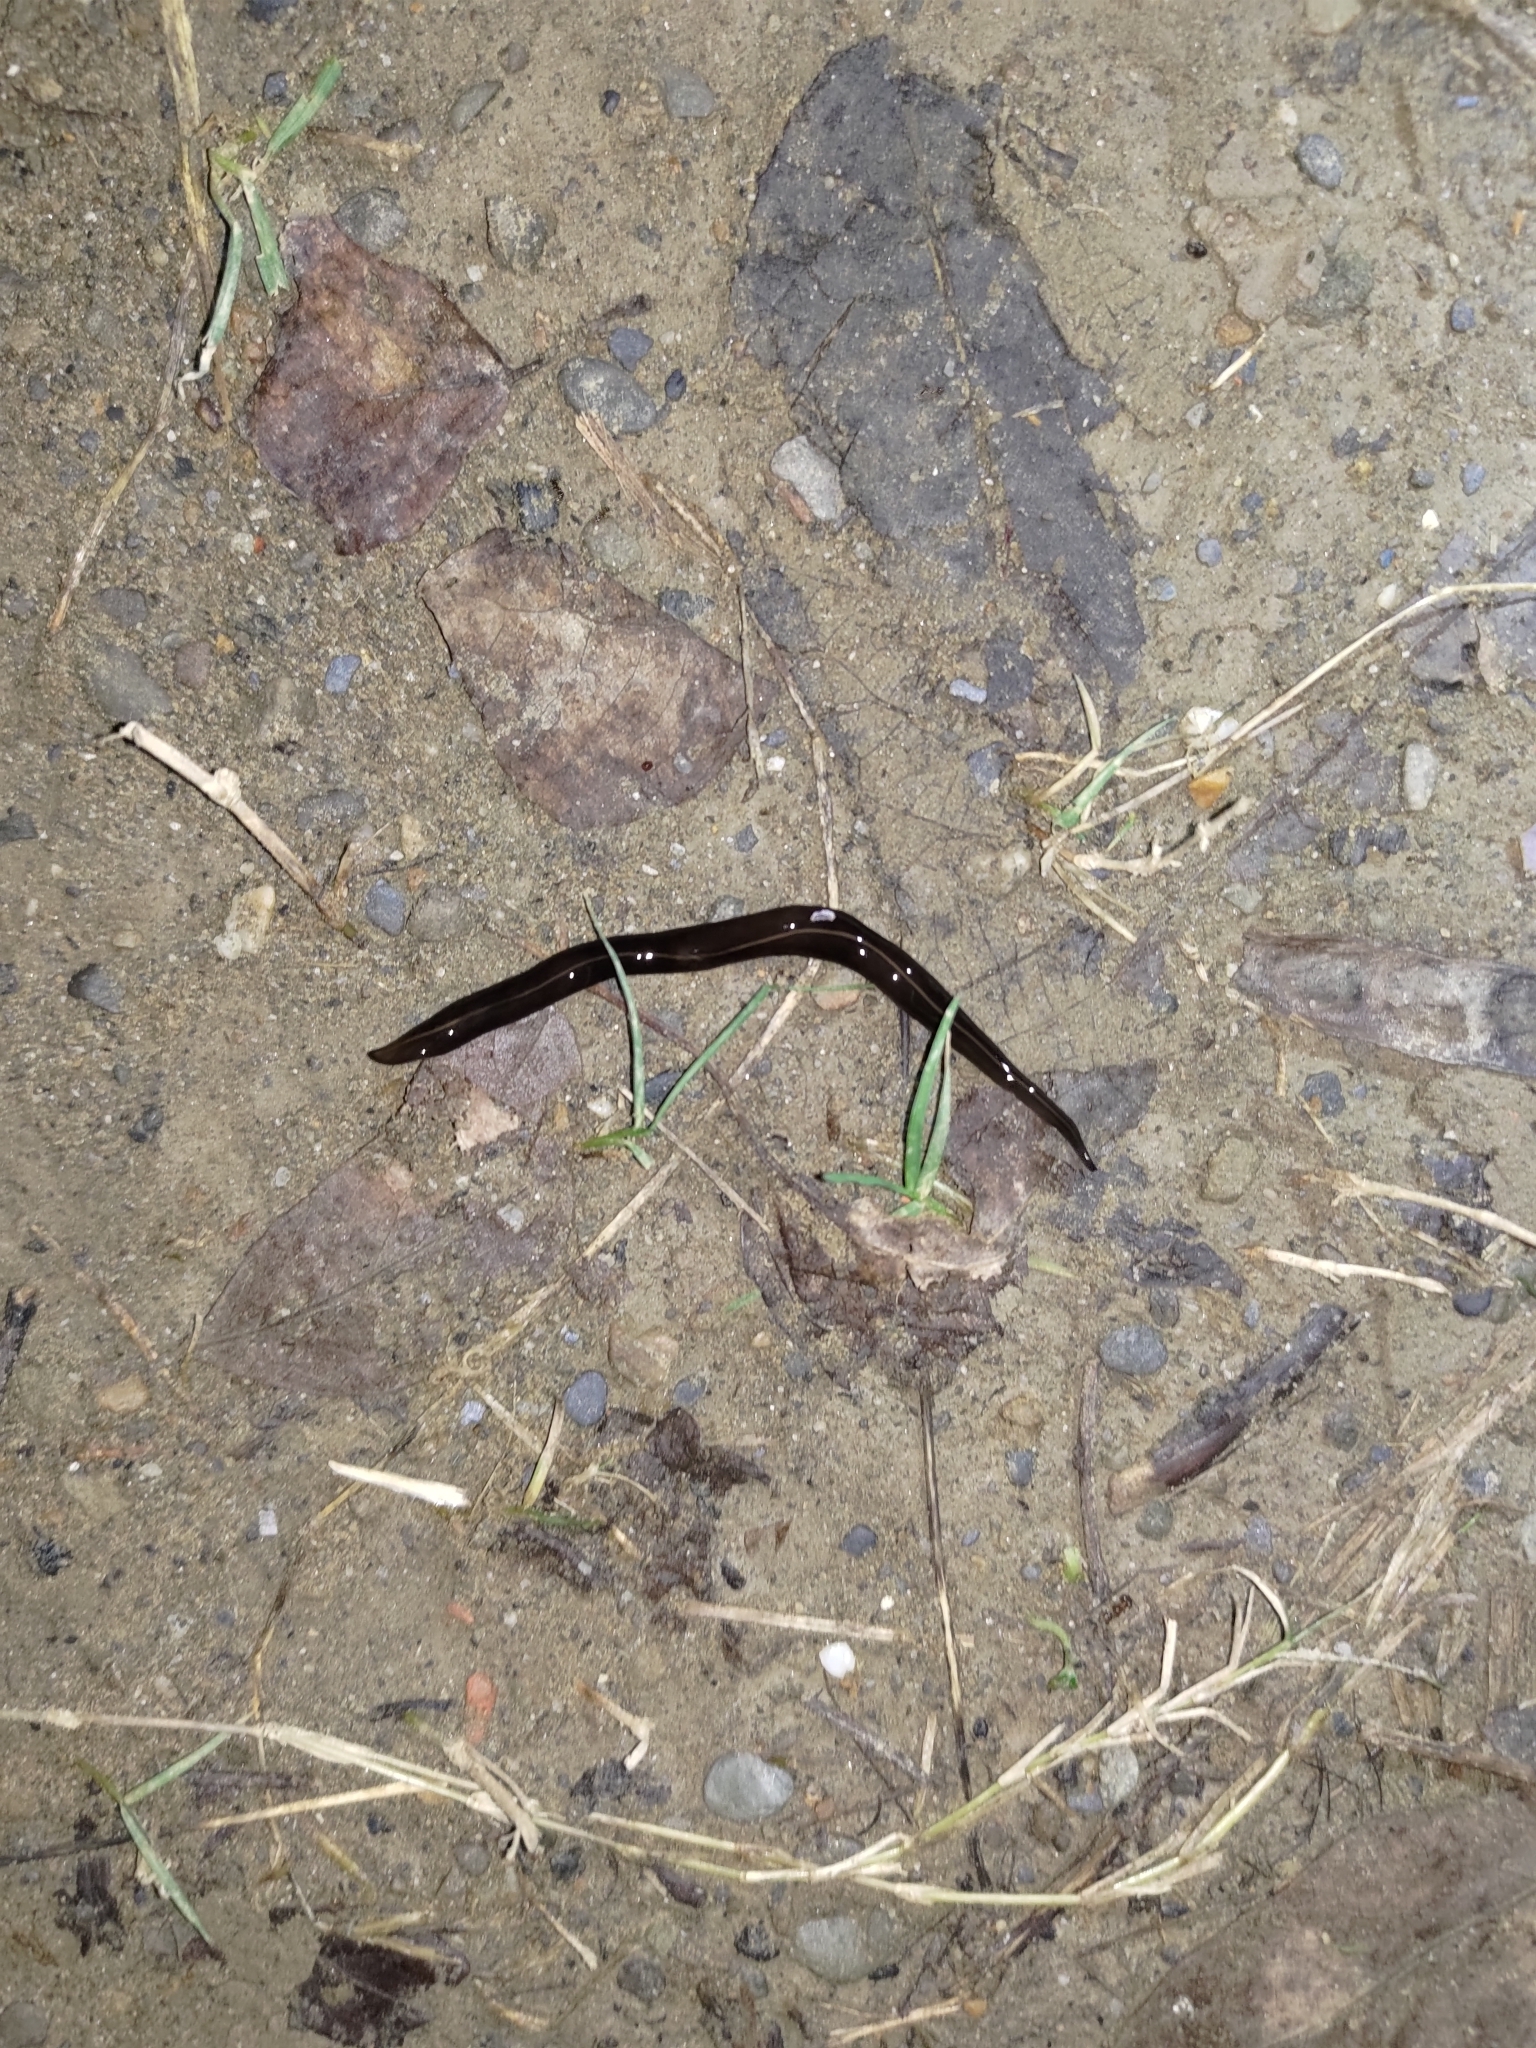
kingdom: Animalia
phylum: Platyhelminthes
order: Tricladida
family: Geoplanidae
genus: Platydemus
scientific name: Platydemus manokwari
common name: New guinea flatworm
